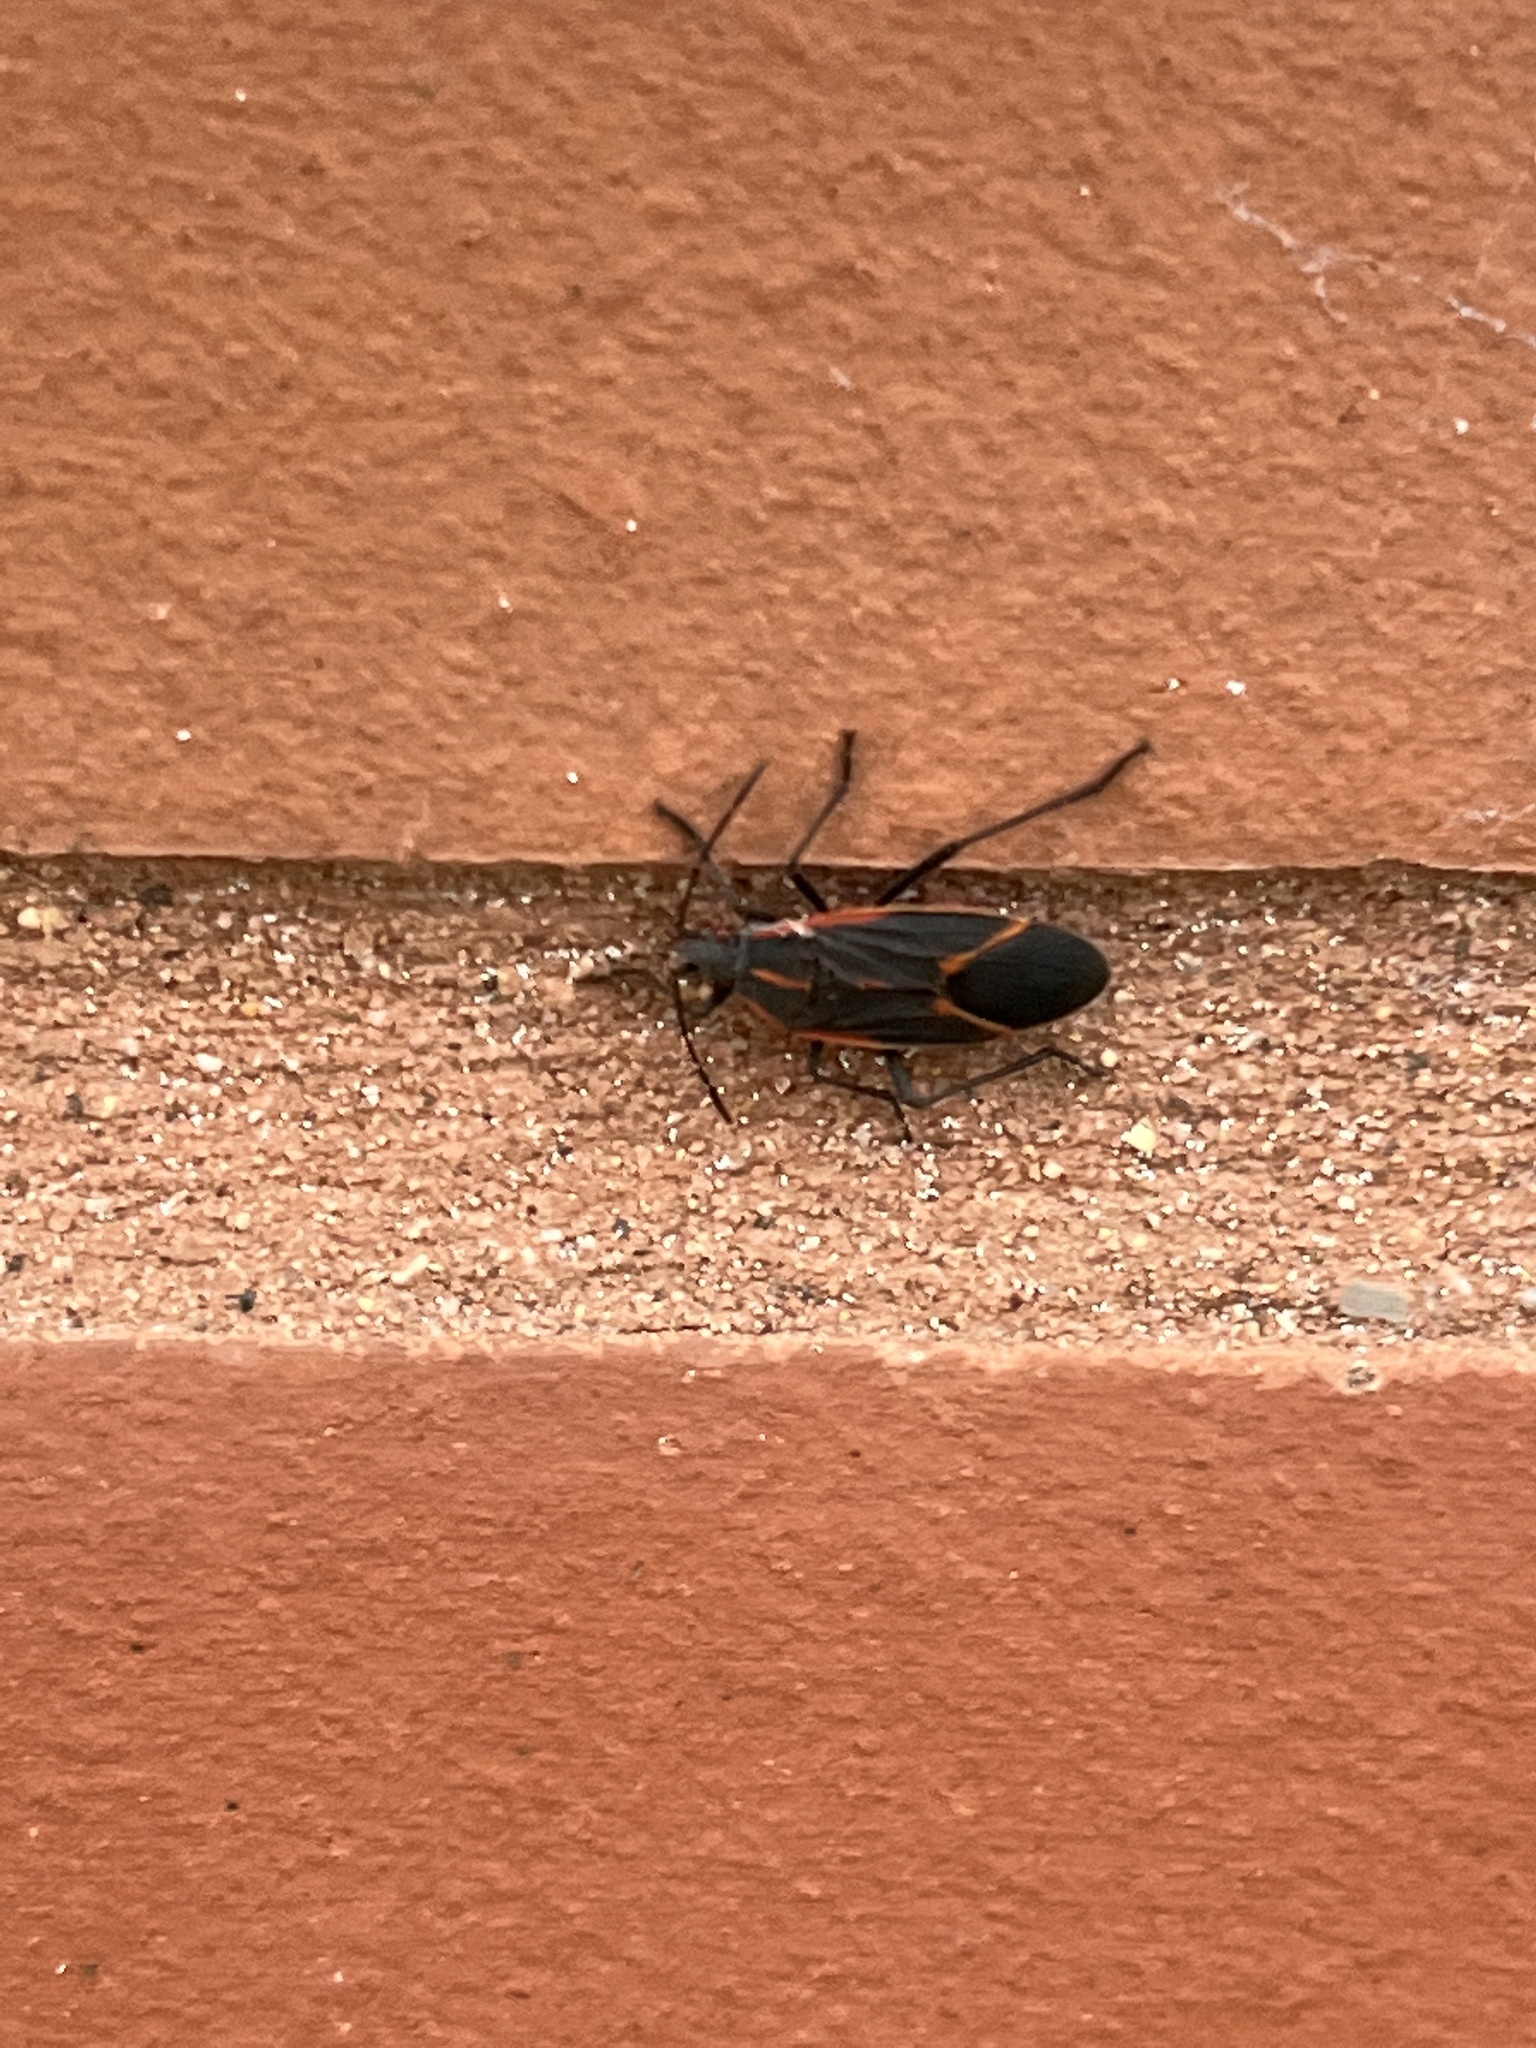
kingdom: Animalia
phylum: Arthropoda
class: Insecta
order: Hemiptera
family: Rhopalidae
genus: Boisea
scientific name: Boisea trivittata
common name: Boxelder bug
